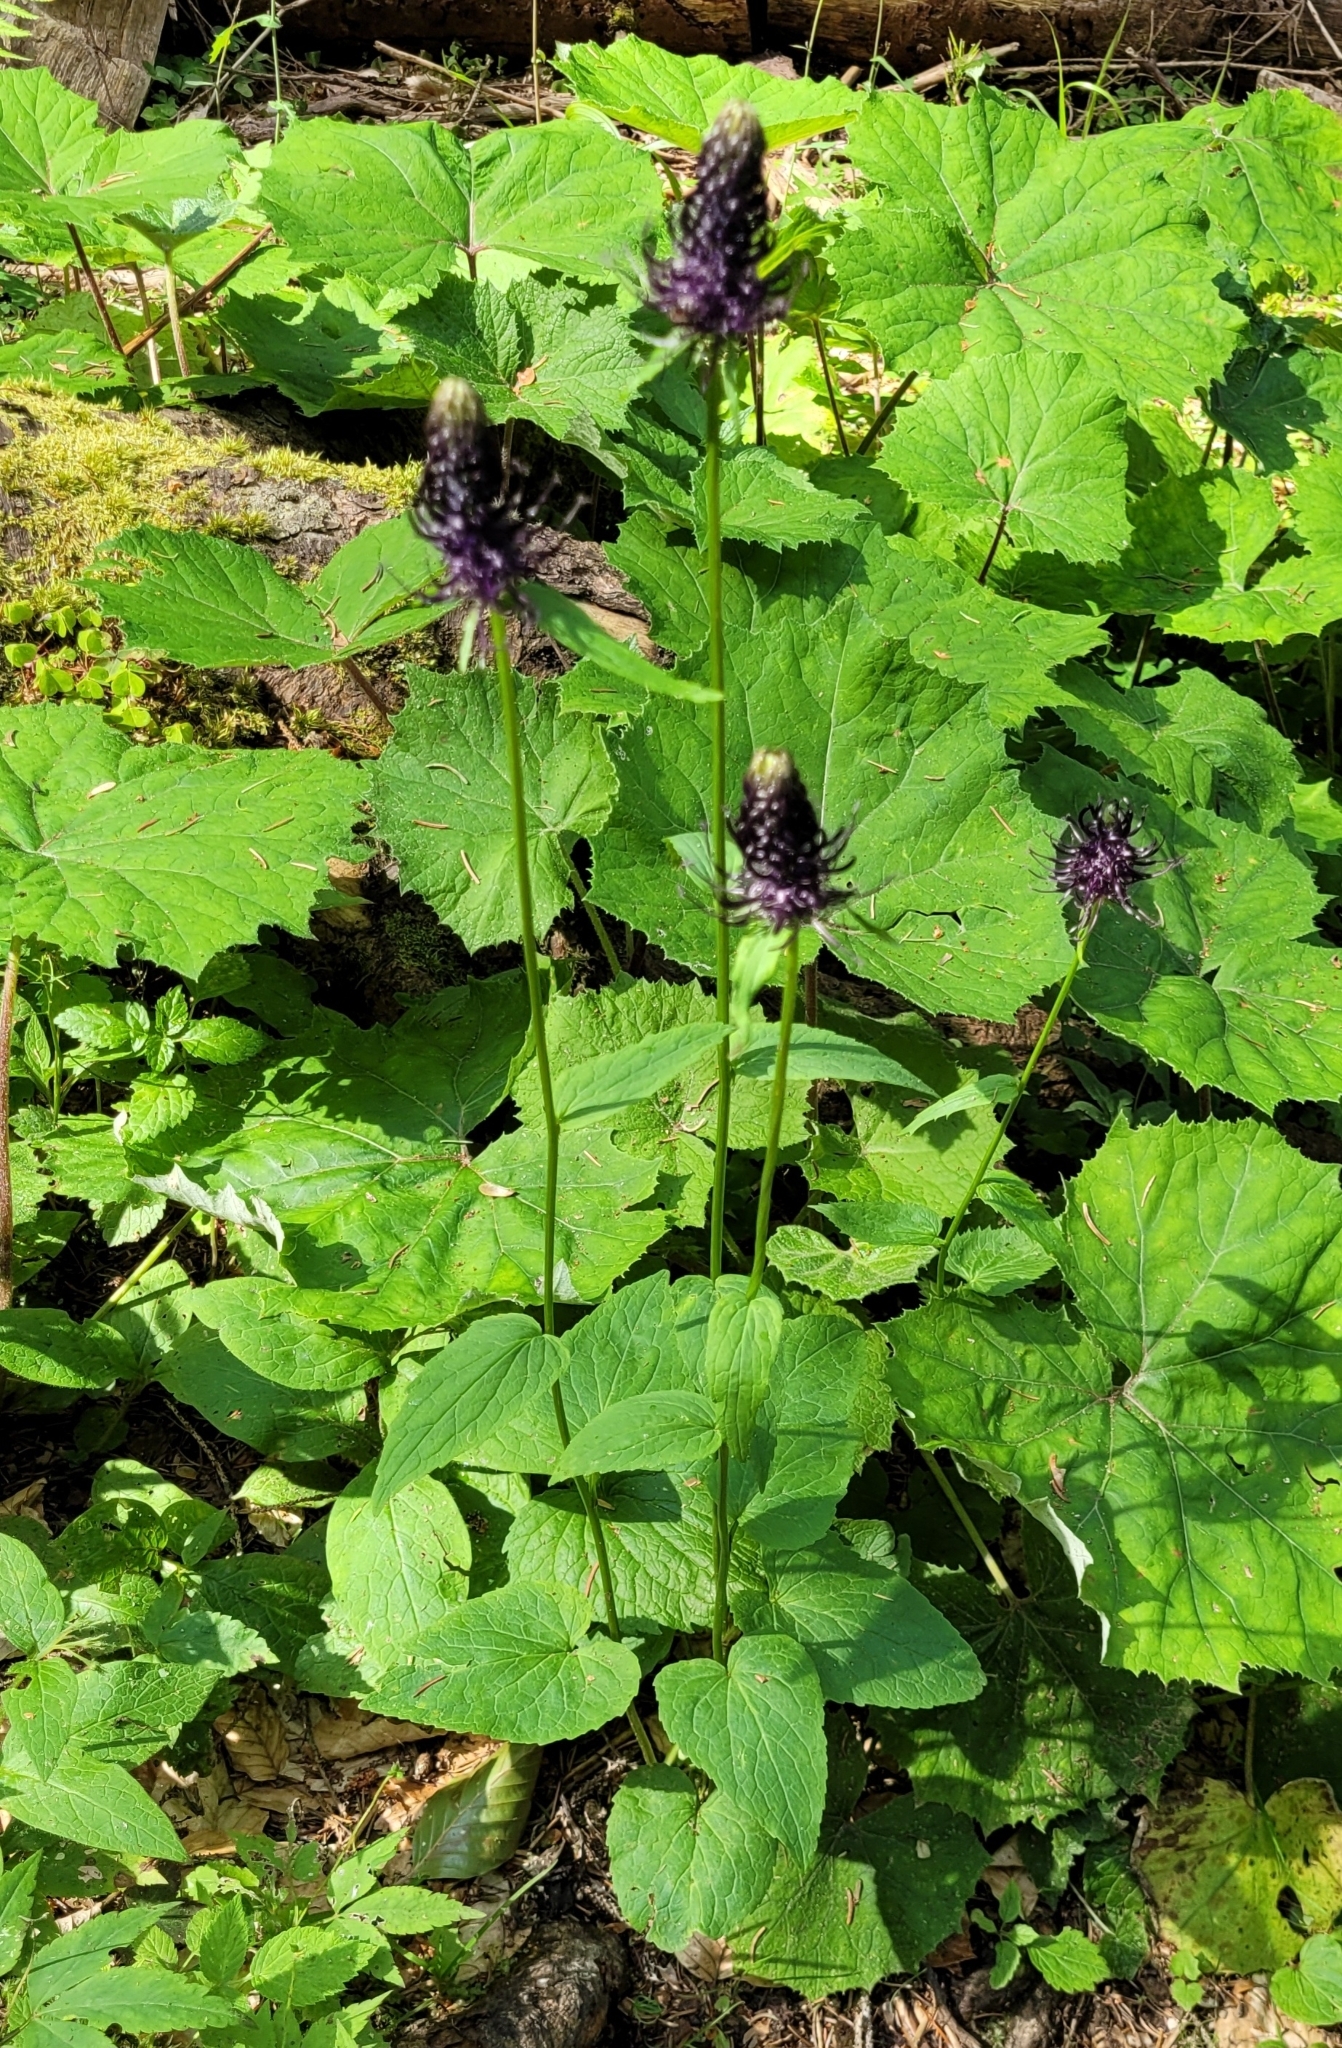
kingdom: Plantae
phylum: Tracheophyta
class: Magnoliopsida
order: Asterales
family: Campanulaceae
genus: Phyteuma
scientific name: Phyteuma ovatum
